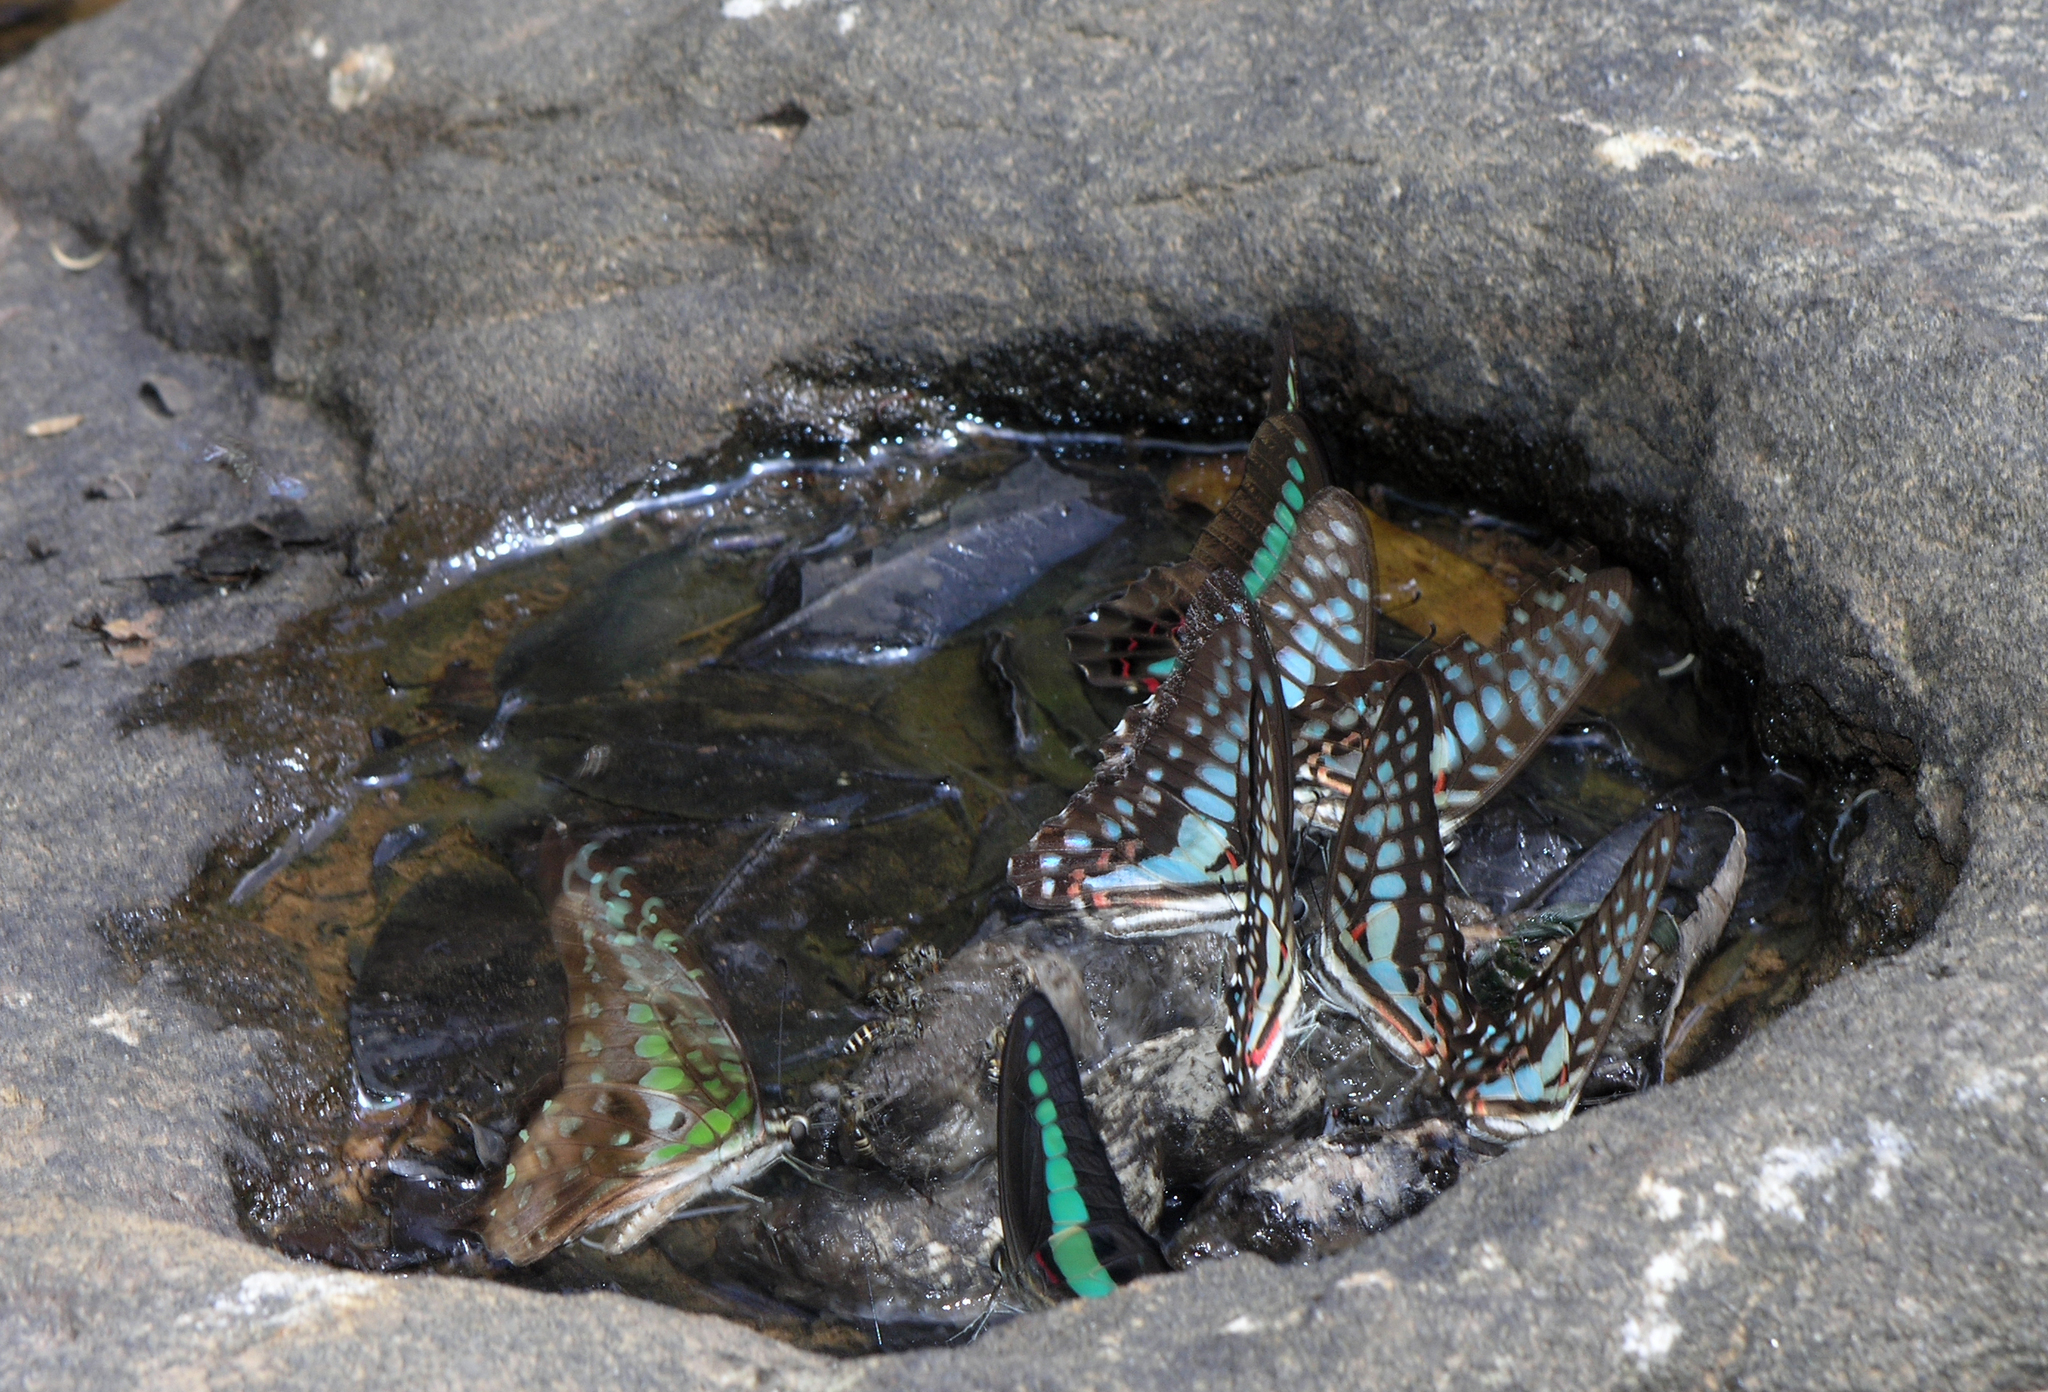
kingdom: Fungi
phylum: Ascomycota
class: Sordariomycetes
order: Microascales
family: Microascaceae
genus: Graphium
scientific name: Graphium sarpedon
